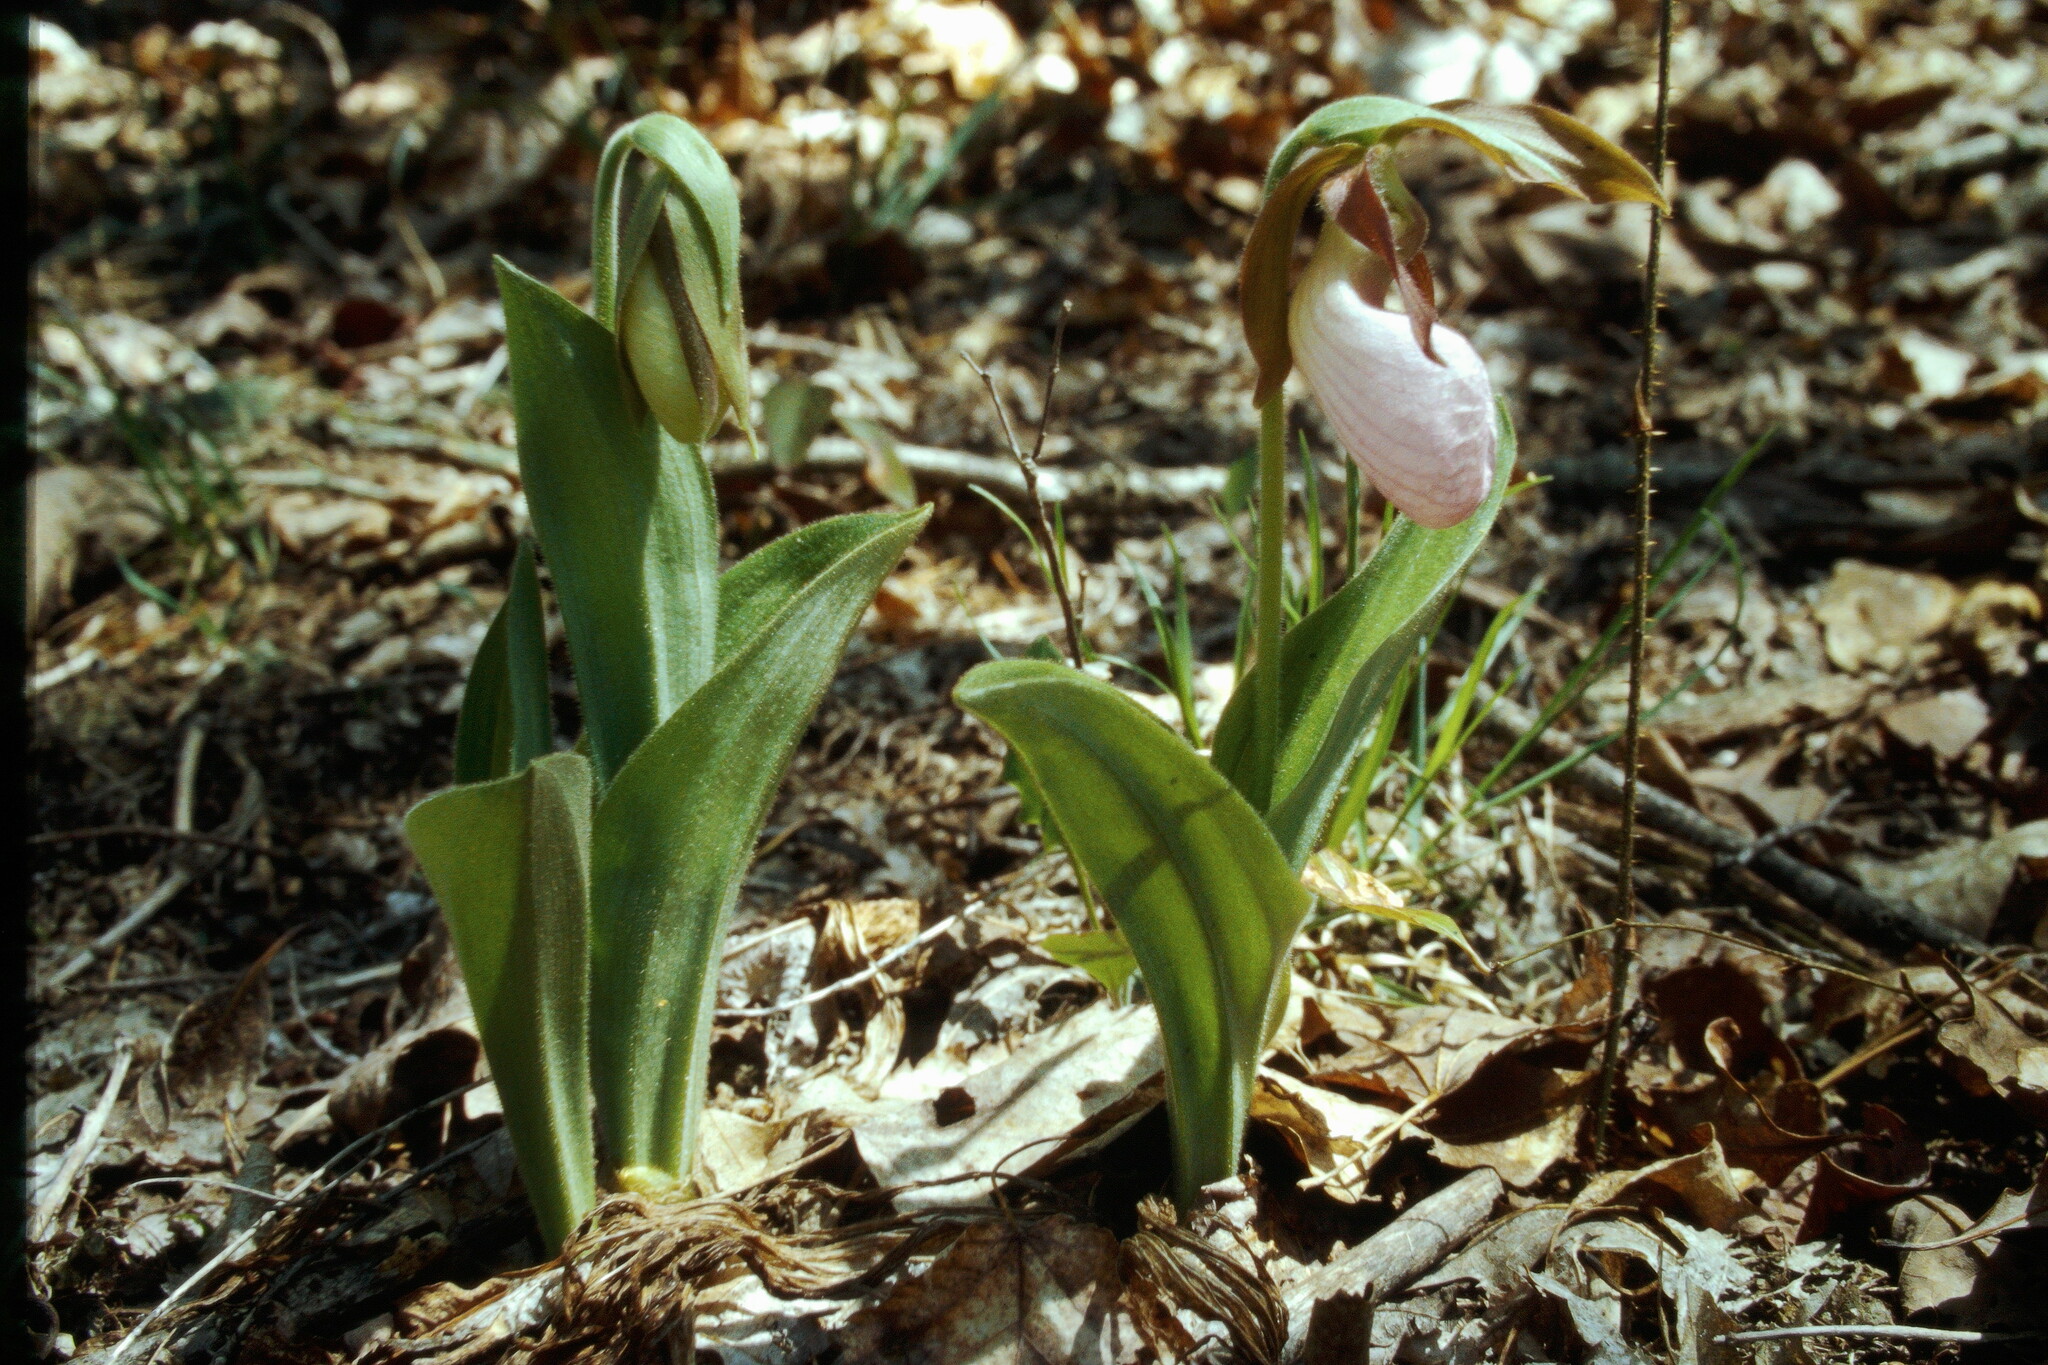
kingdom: Plantae
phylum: Tracheophyta
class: Liliopsida
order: Asparagales
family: Orchidaceae
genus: Cypripedium
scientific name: Cypripedium acaule
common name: Pink lady's-slipper
